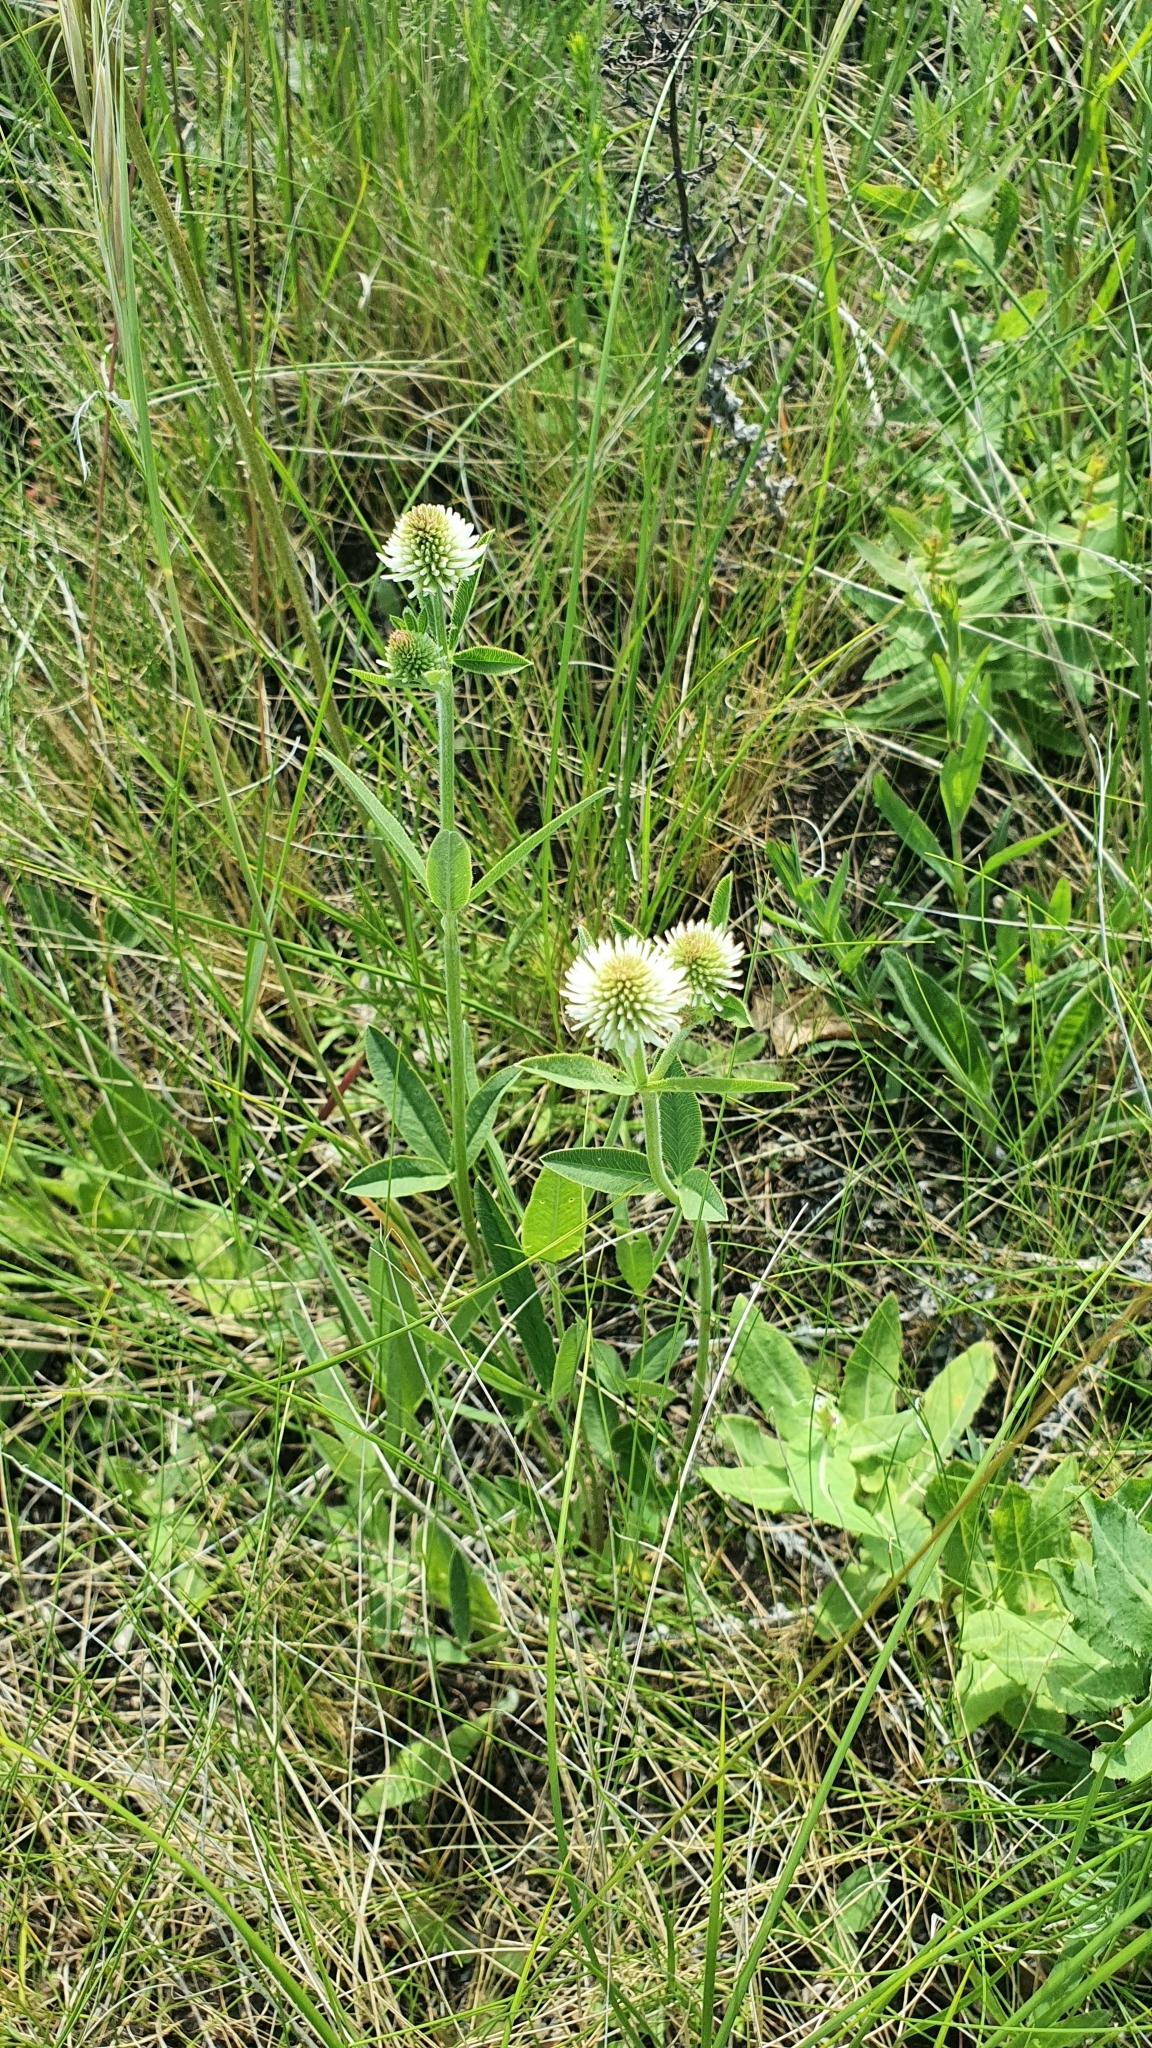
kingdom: Plantae
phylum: Tracheophyta
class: Magnoliopsida
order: Fabales
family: Fabaceae
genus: Trifolium
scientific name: Trifolium montanum
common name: Mountain clover
